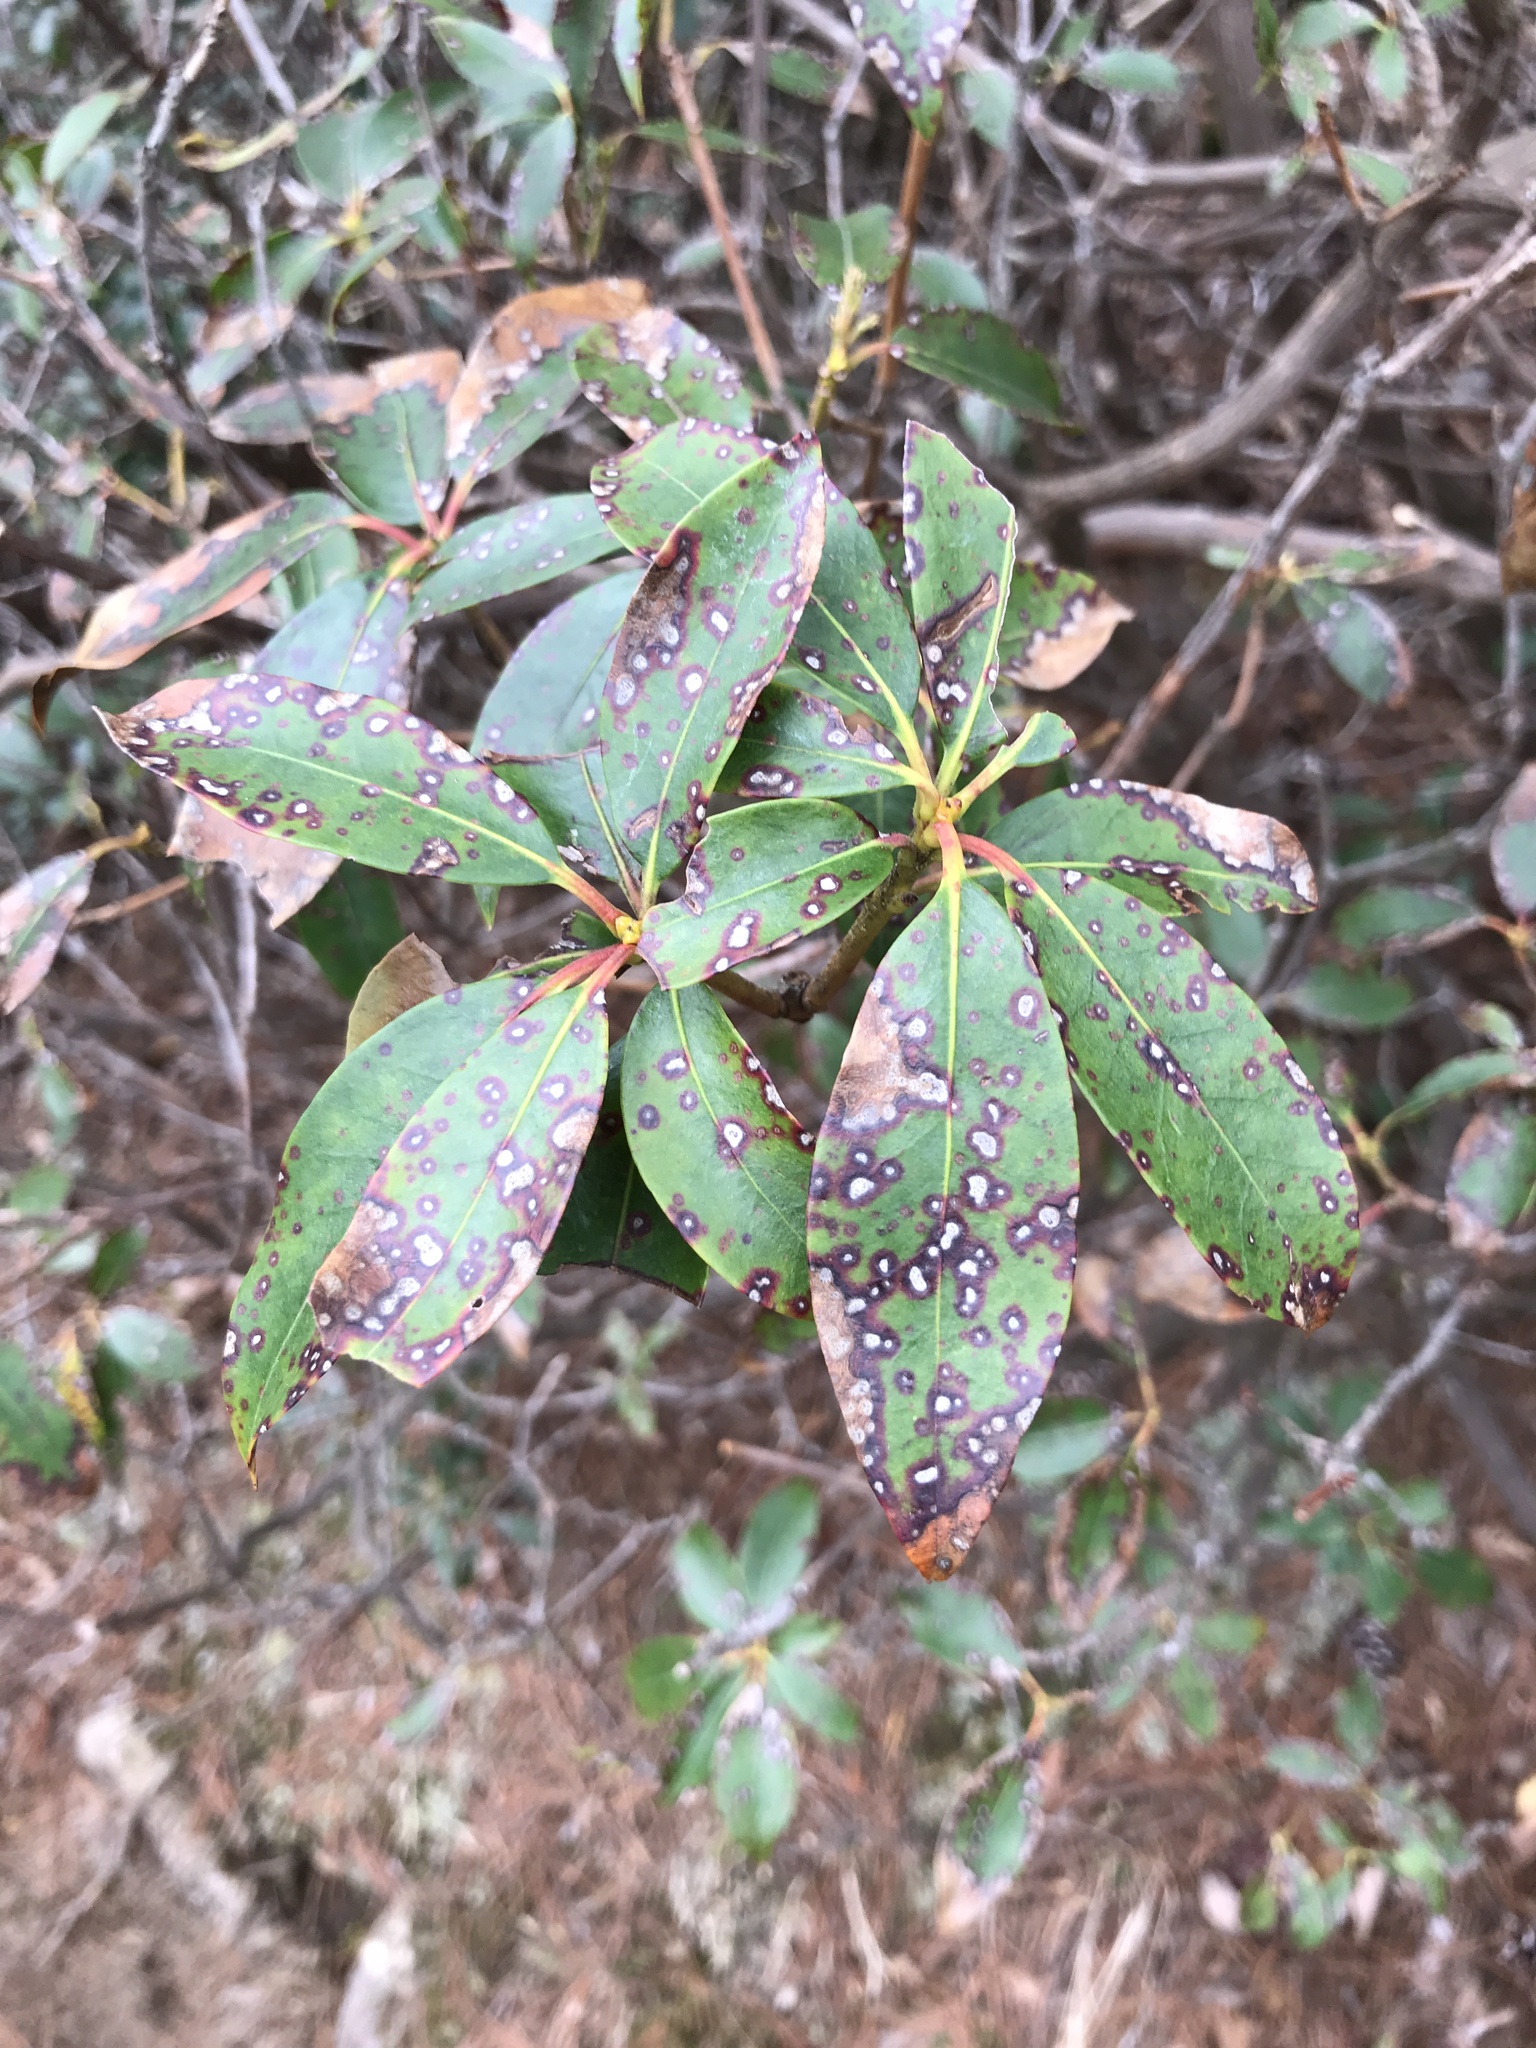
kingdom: Fungi
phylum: Ascomycota
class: Dothideomycetes
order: Mycosphaerellales
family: Mycosphaerellaceae
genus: Mycosphaerella
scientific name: Mycosphaerella colorata
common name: Mountain laurel leaf spot
